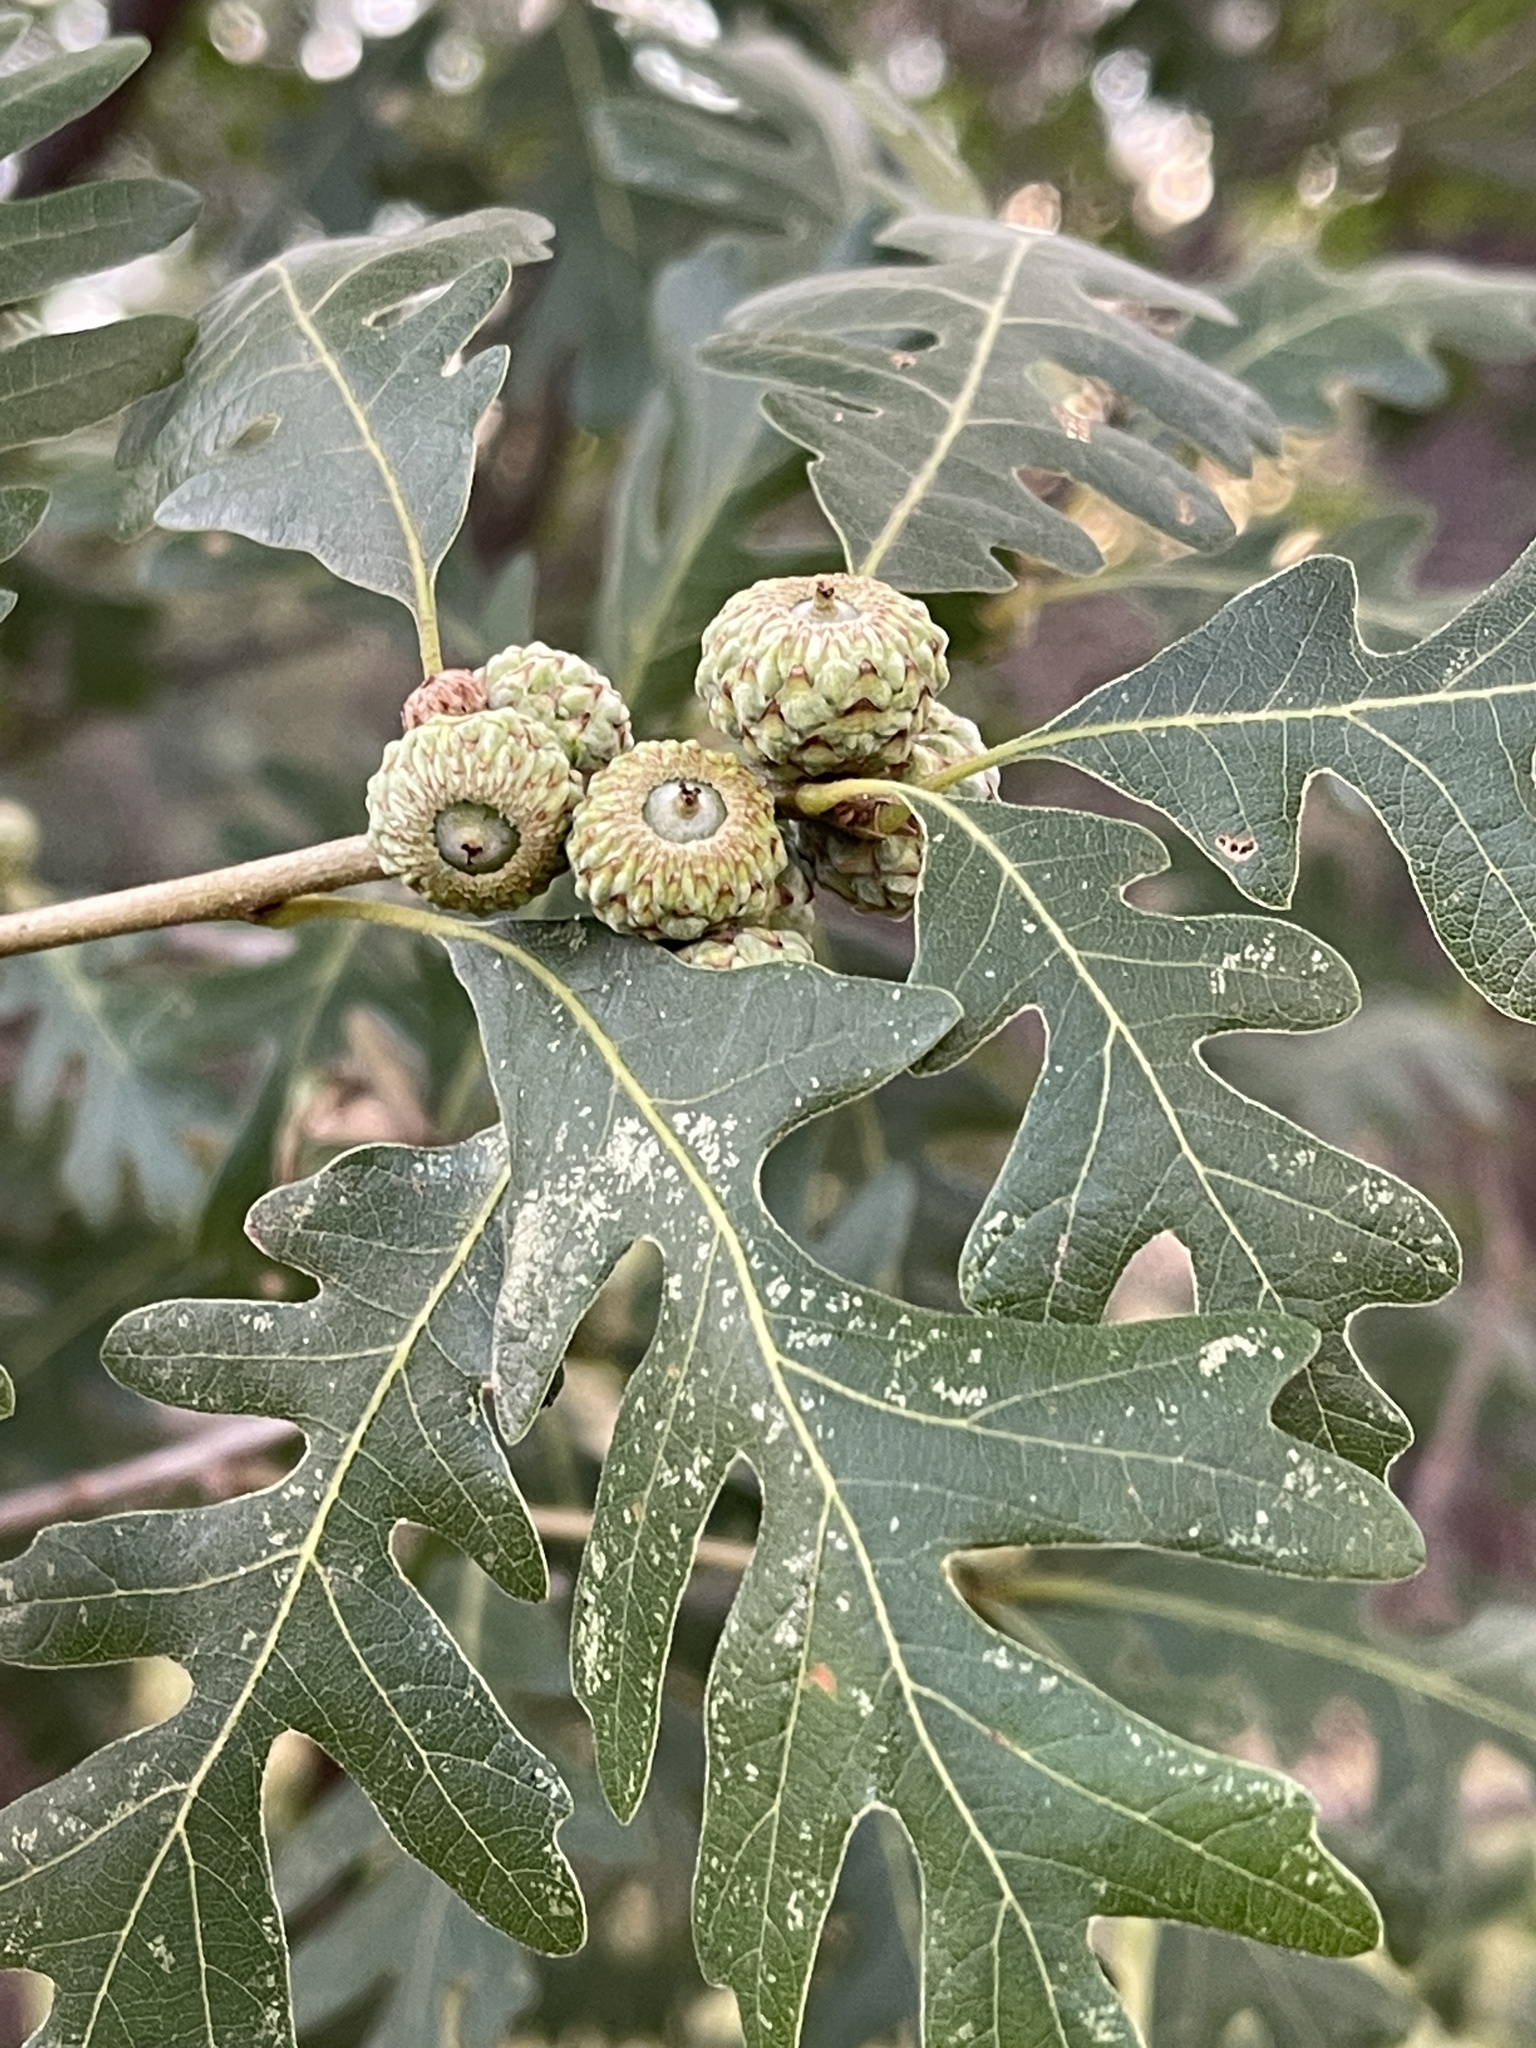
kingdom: Plantae
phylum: Tracheophyta
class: Magnoliopsida
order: Fagales
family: Fagaceae
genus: Quercus
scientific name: Quercus gambelii
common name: Gambel oak
